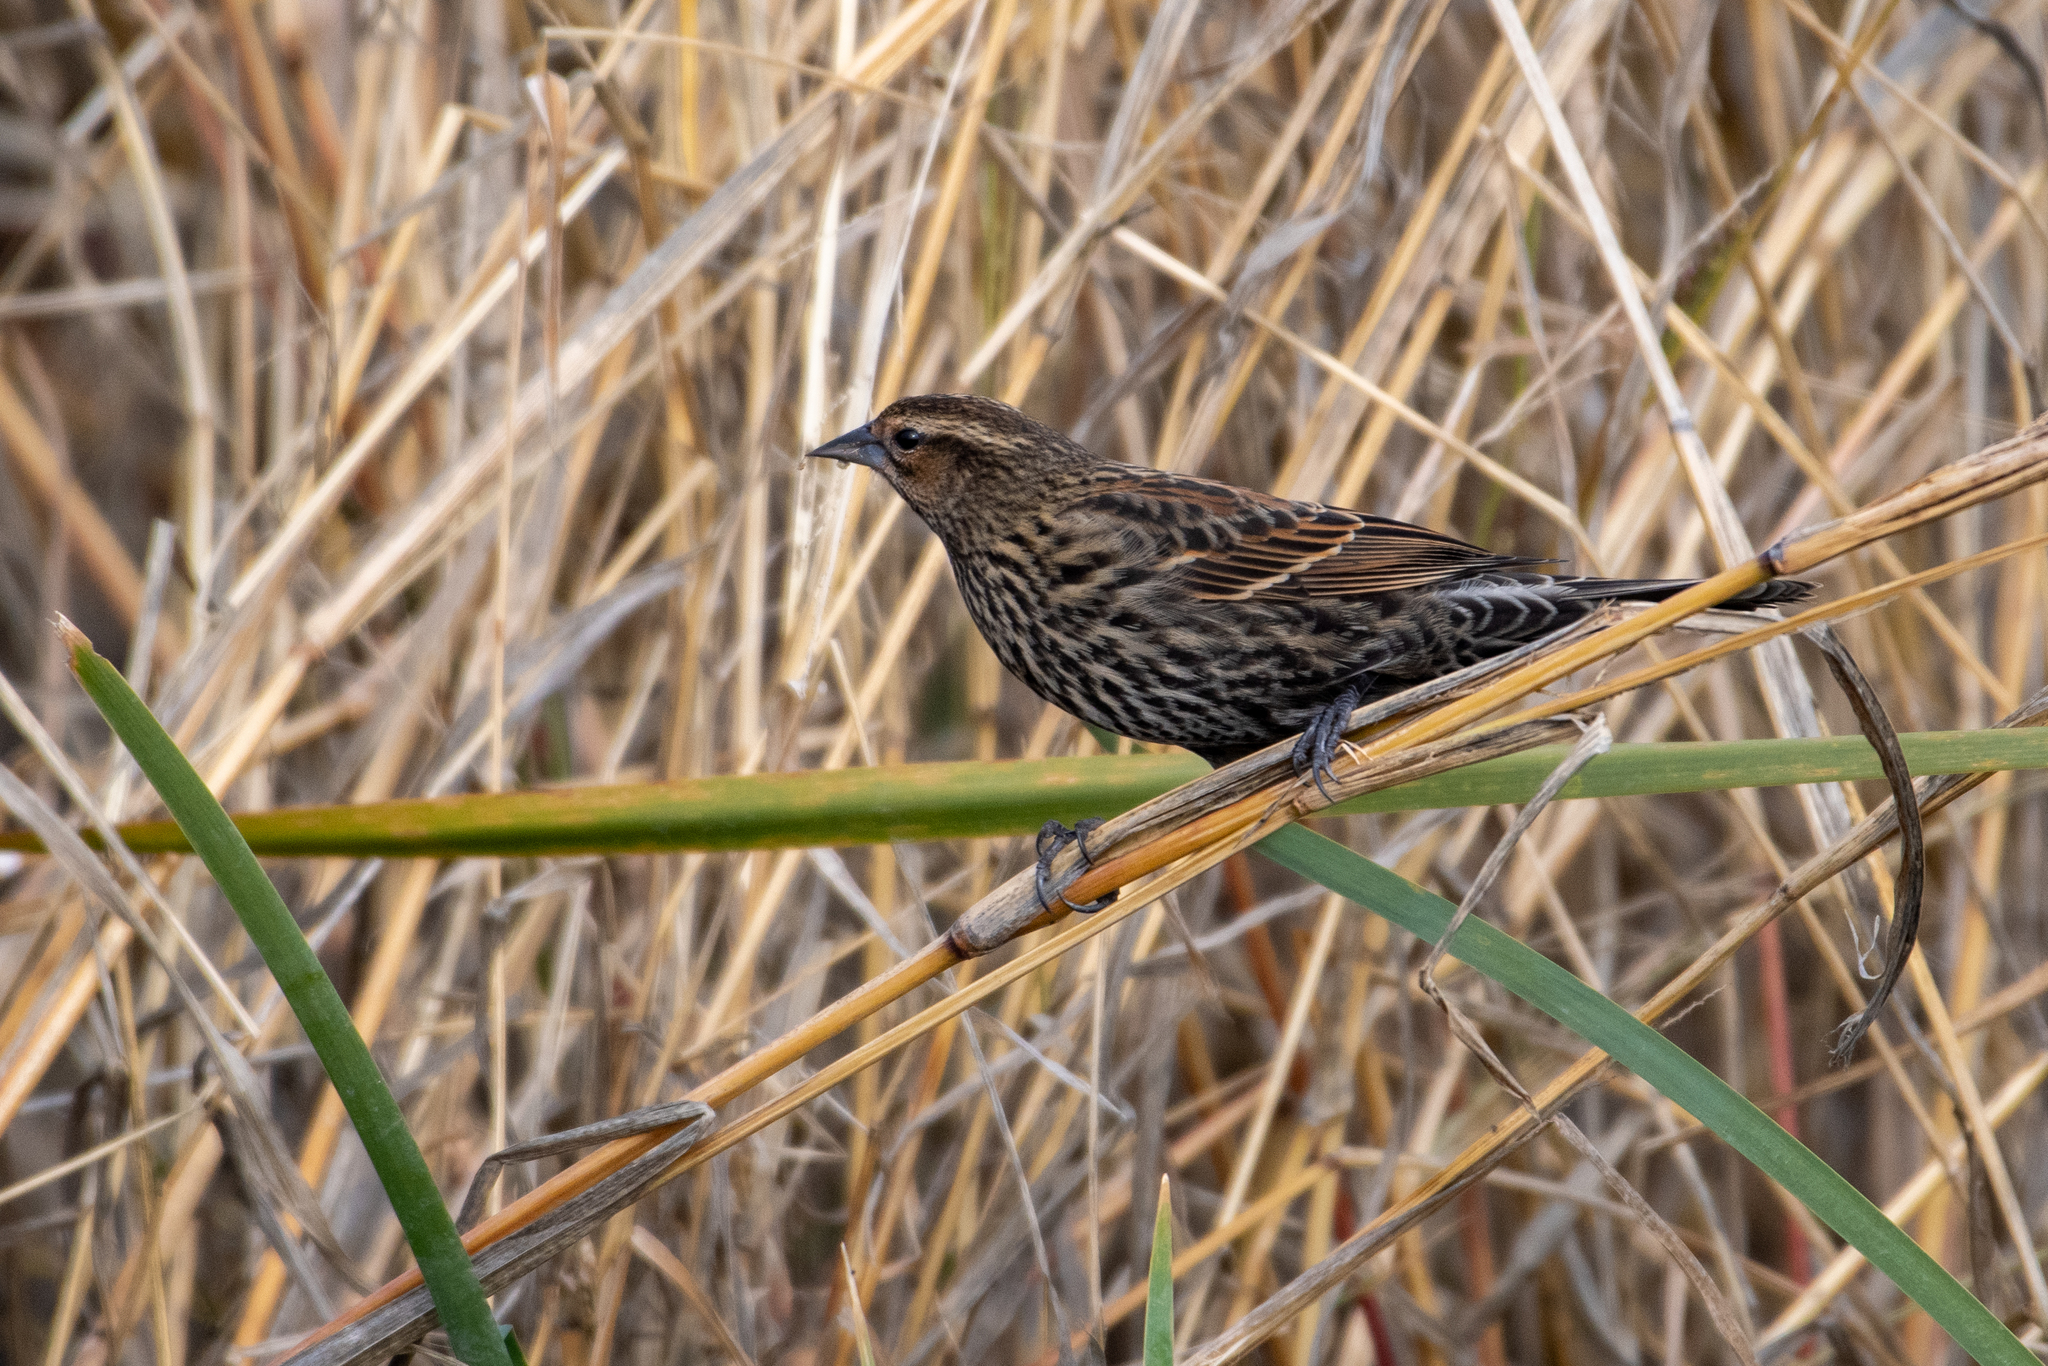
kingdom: Animalia
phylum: Chordata
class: Aves
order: Passeriformes
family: Icteridae
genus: Agelaius
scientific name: Agelaius phoeniceus
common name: Red-winged blackbird
